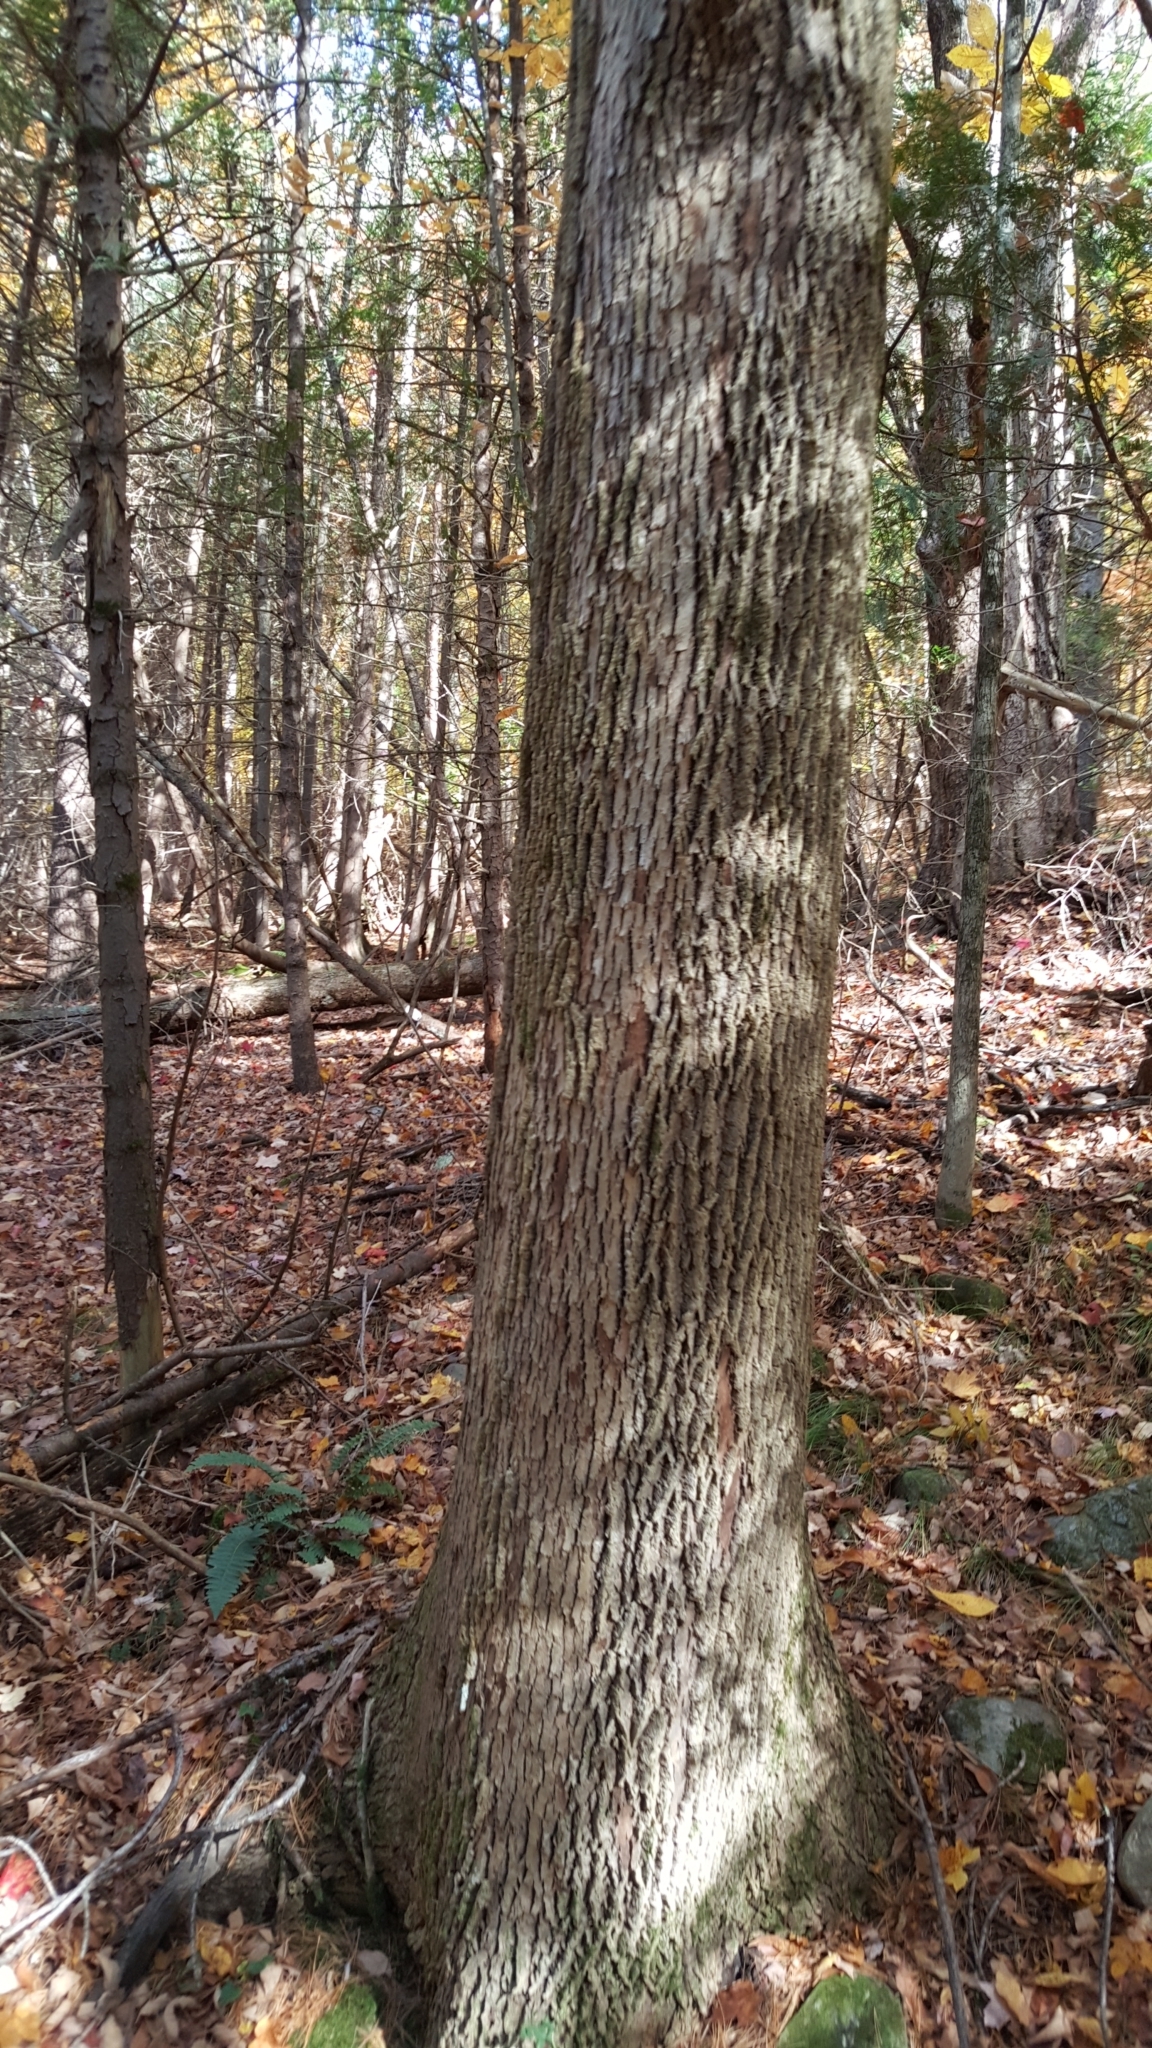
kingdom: Plantae
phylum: Tracheophyta
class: Magnoliopsida
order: Lamiales
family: Oleaceae
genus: Fraxinus
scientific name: Fraxinus americana
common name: White ash
